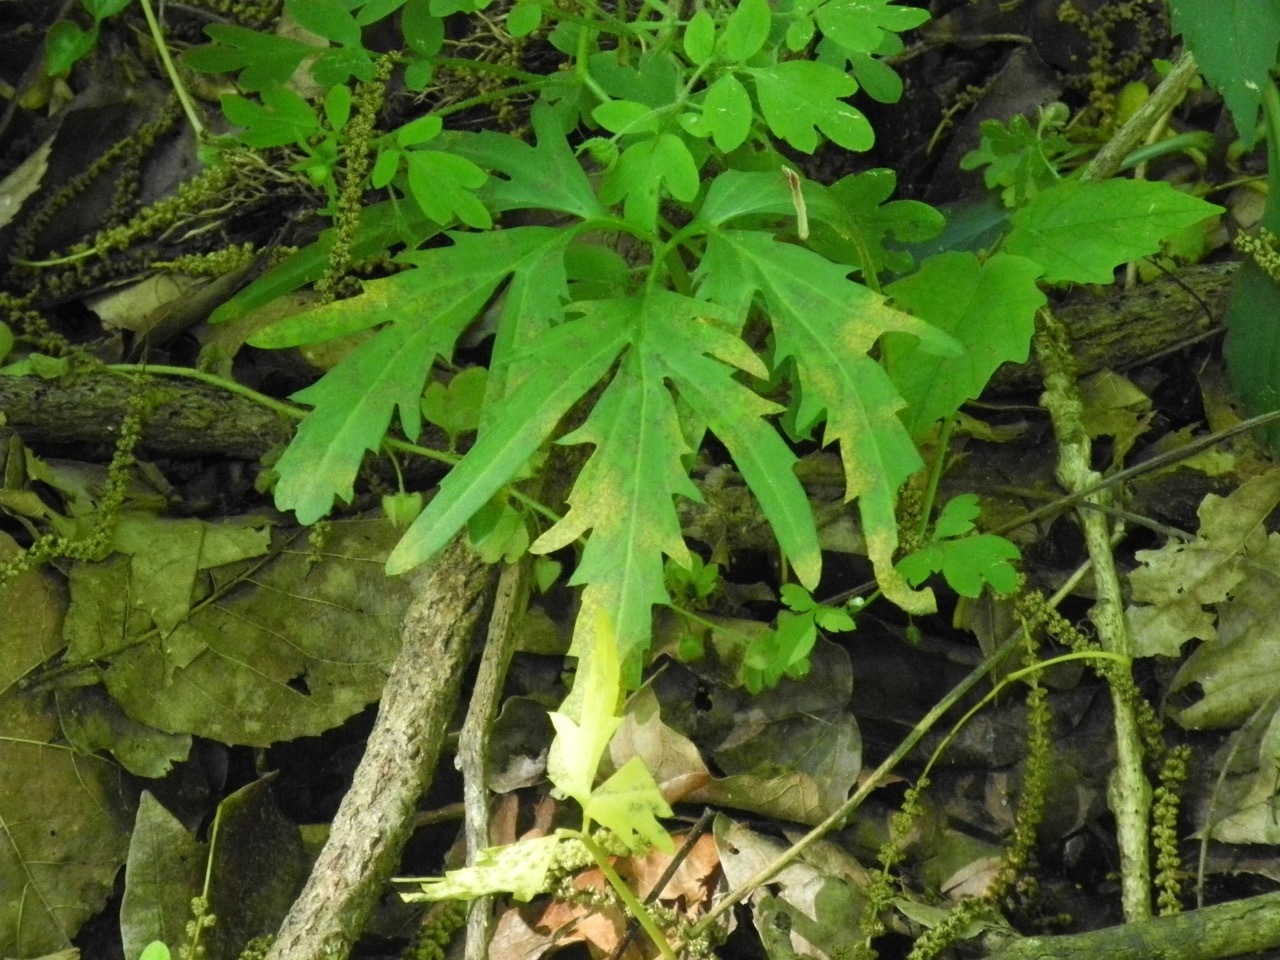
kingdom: Plantae
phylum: Tracheophyta
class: Magnoliopsida
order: Brassicales
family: Brassicaceae
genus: Cardamine
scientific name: Cardamine concatenata
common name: Cut-leaf toothcup
